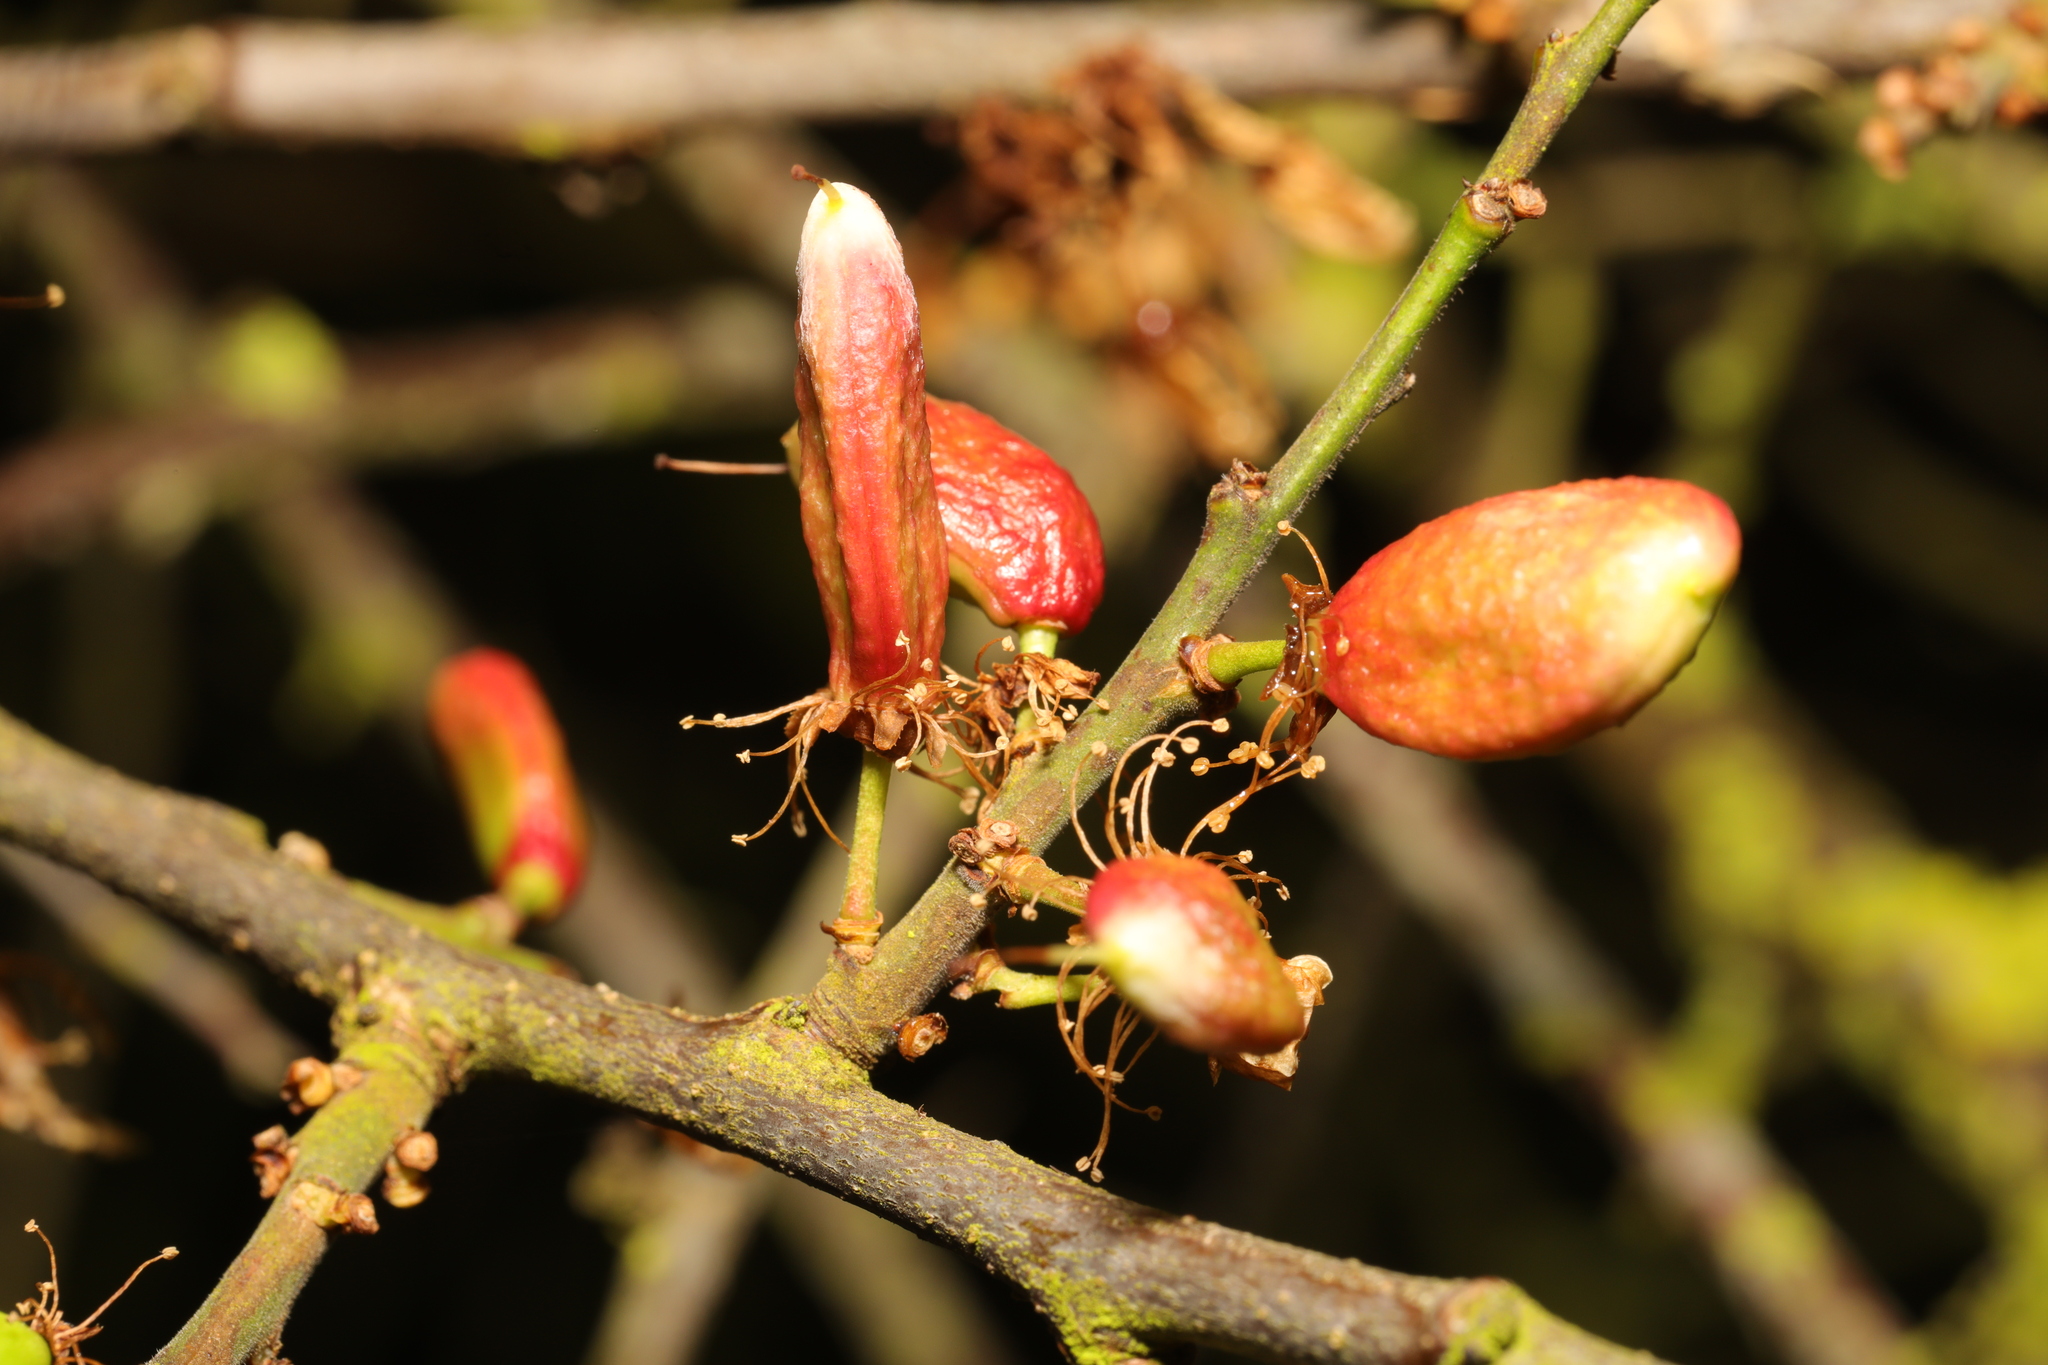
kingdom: Fungi
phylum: Ascomycota
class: Taphrinomycetes
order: Taphrinales
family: Taphrinaceae
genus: Taphrina
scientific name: Taphrina pruni
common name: Pocket plum
